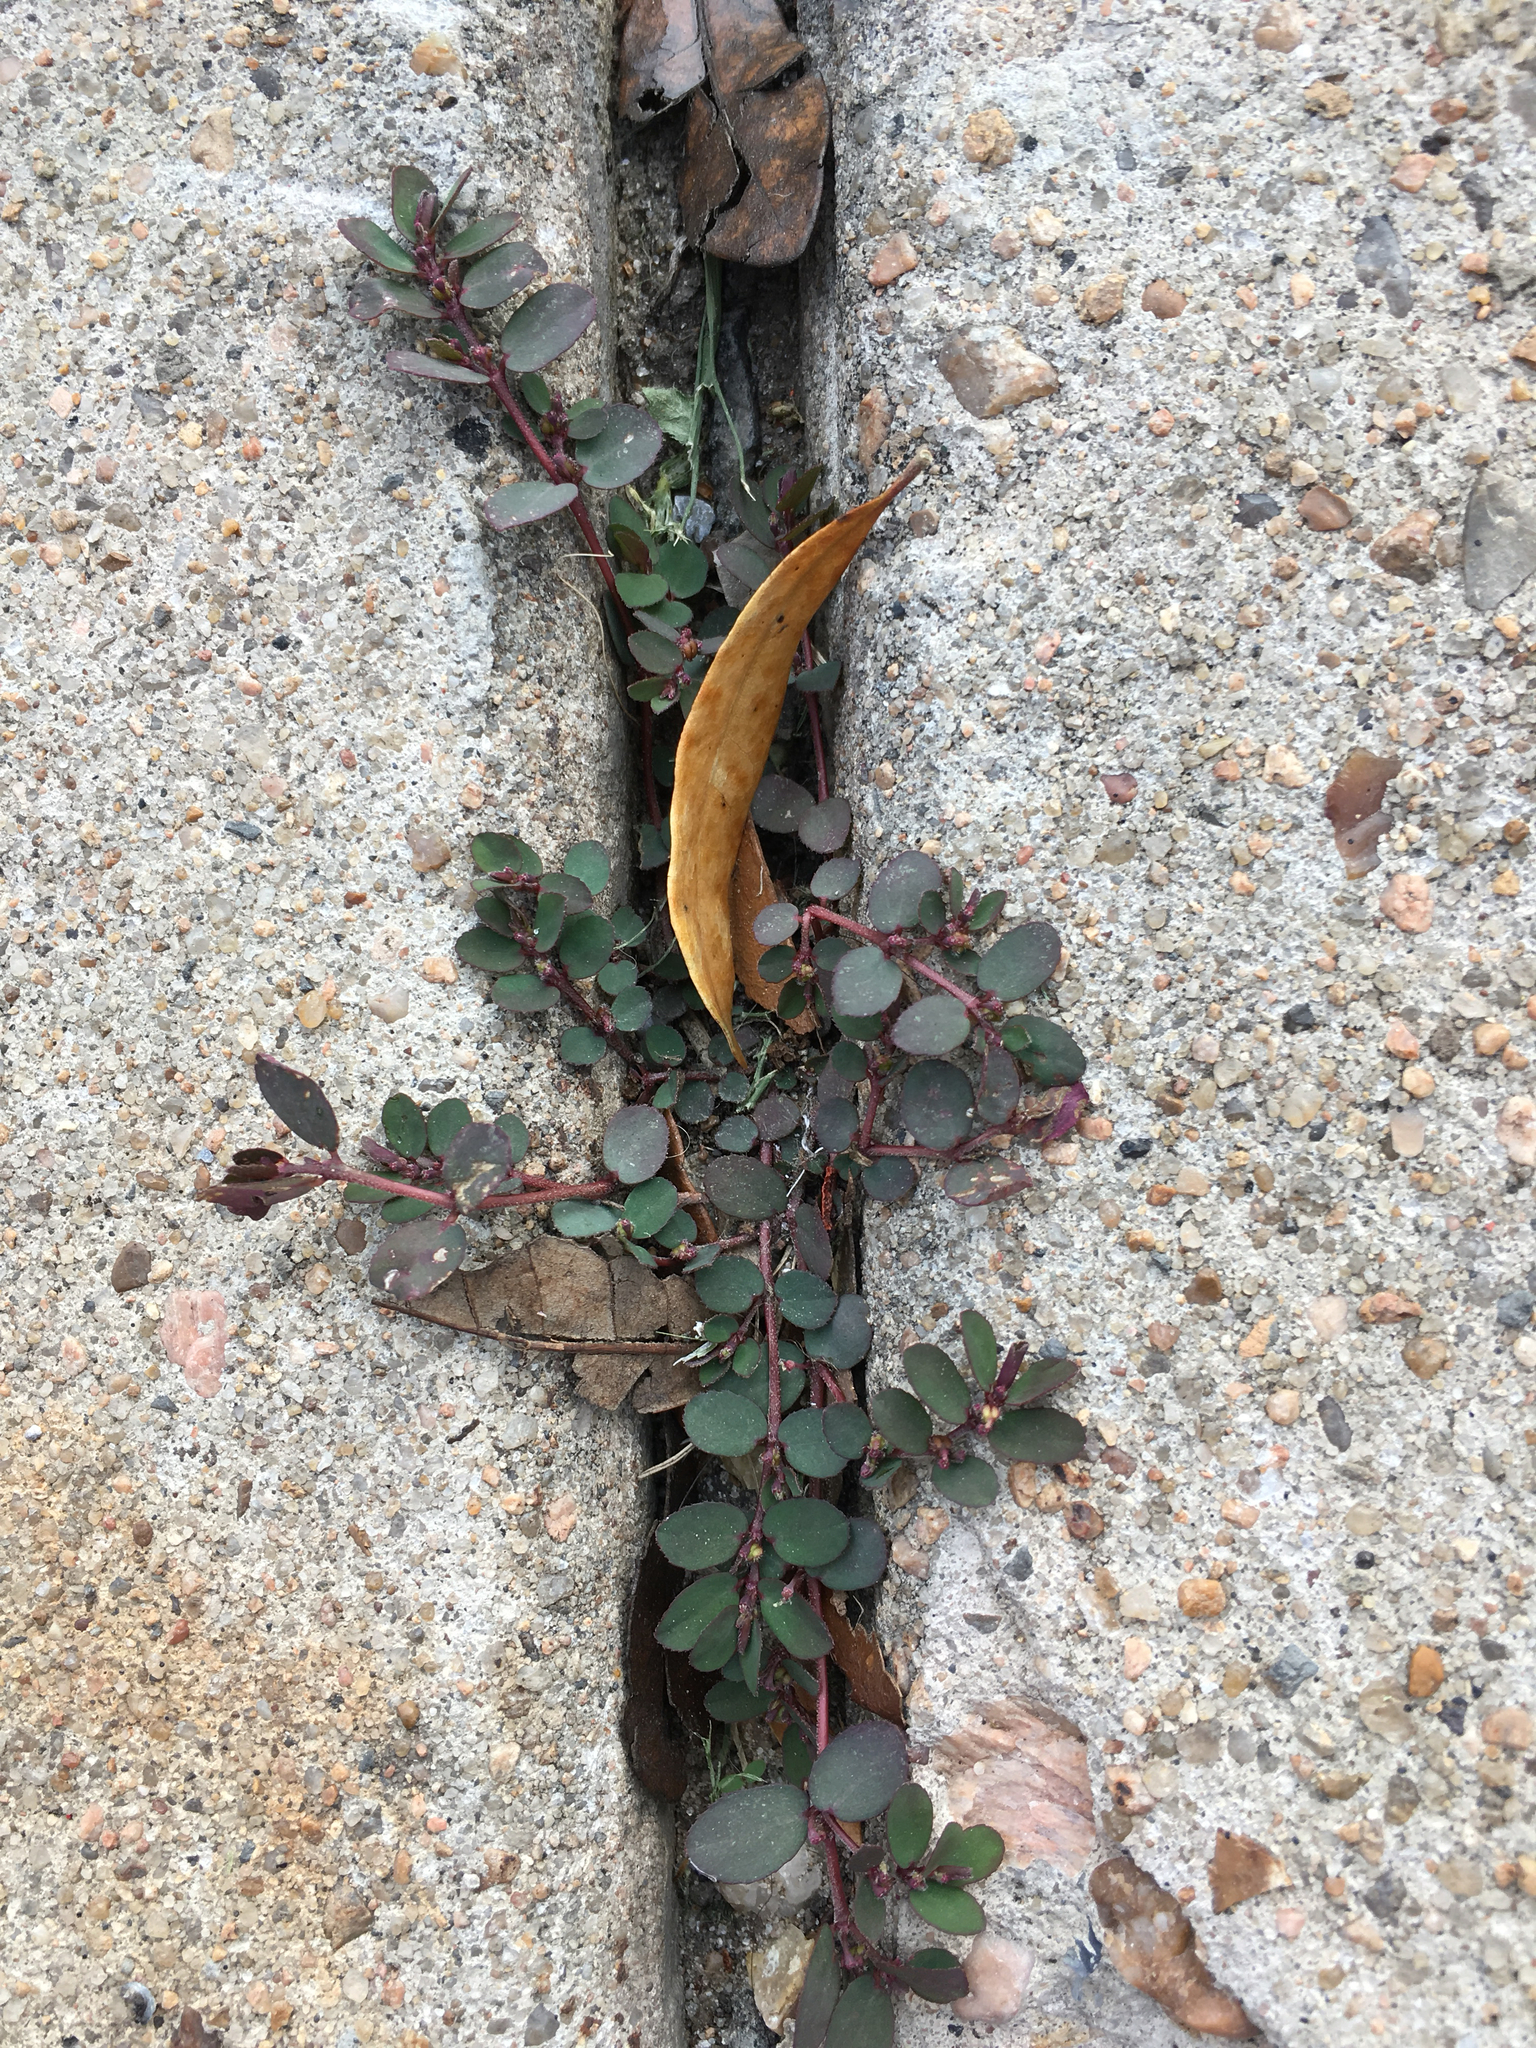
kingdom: Plantae
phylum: Tracheophyta
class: Magnoliopsida
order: Malpighiales
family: Euphorbiaceae
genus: Euphorbia
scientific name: Euphorbia prostrata
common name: Prostrate sandmat
